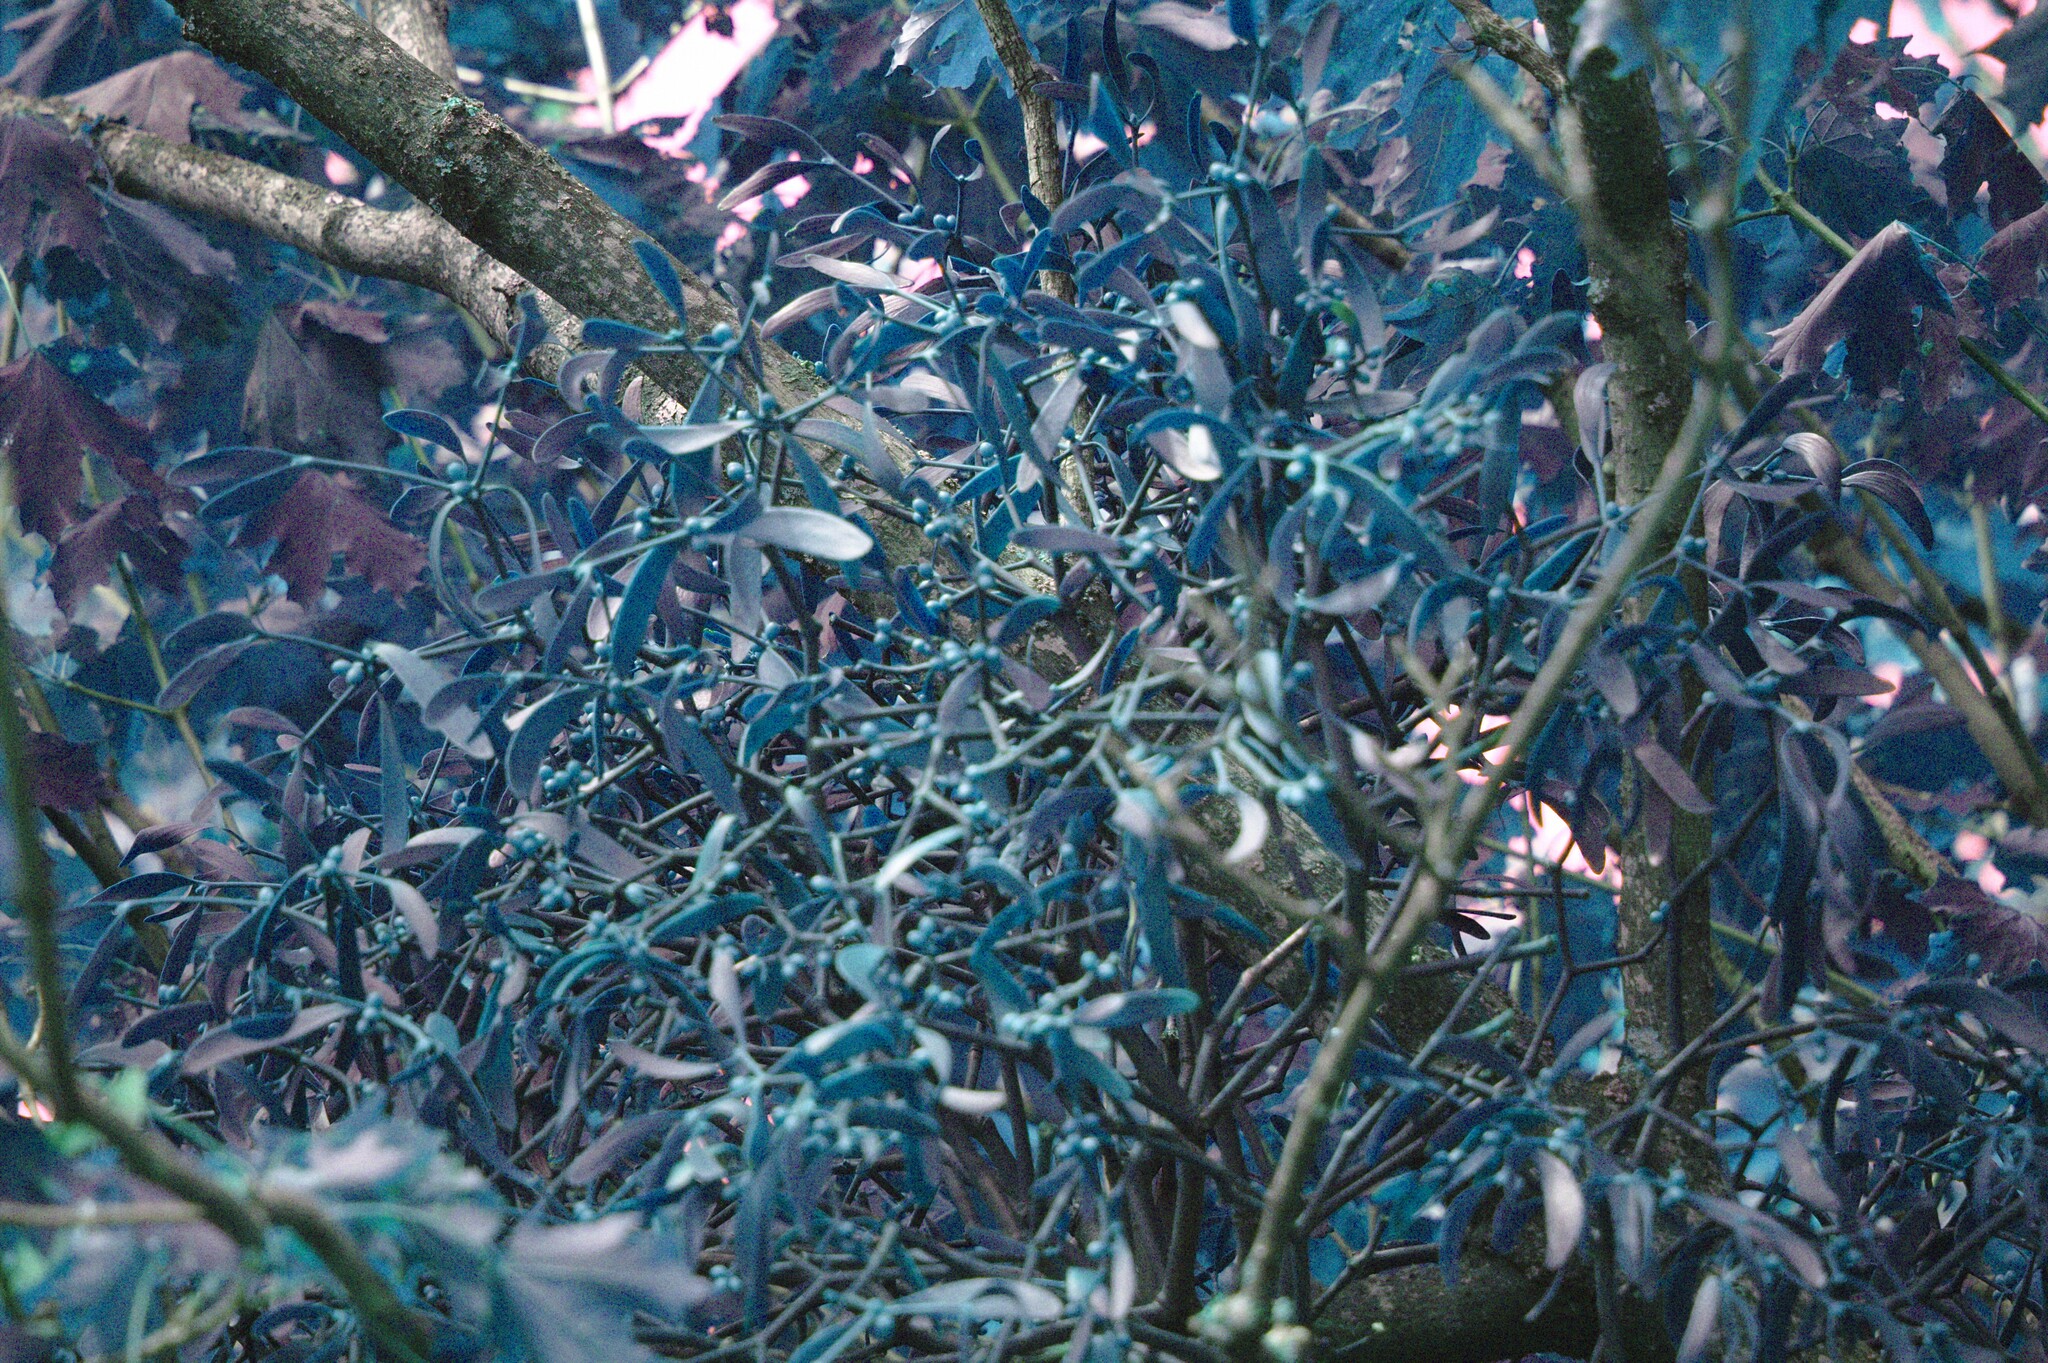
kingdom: Plantae
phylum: Tracheophyta
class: Magnoliopsida
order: Santalales
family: Viscaceae
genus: Viscum
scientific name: Viscum album
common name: Mistletoe
